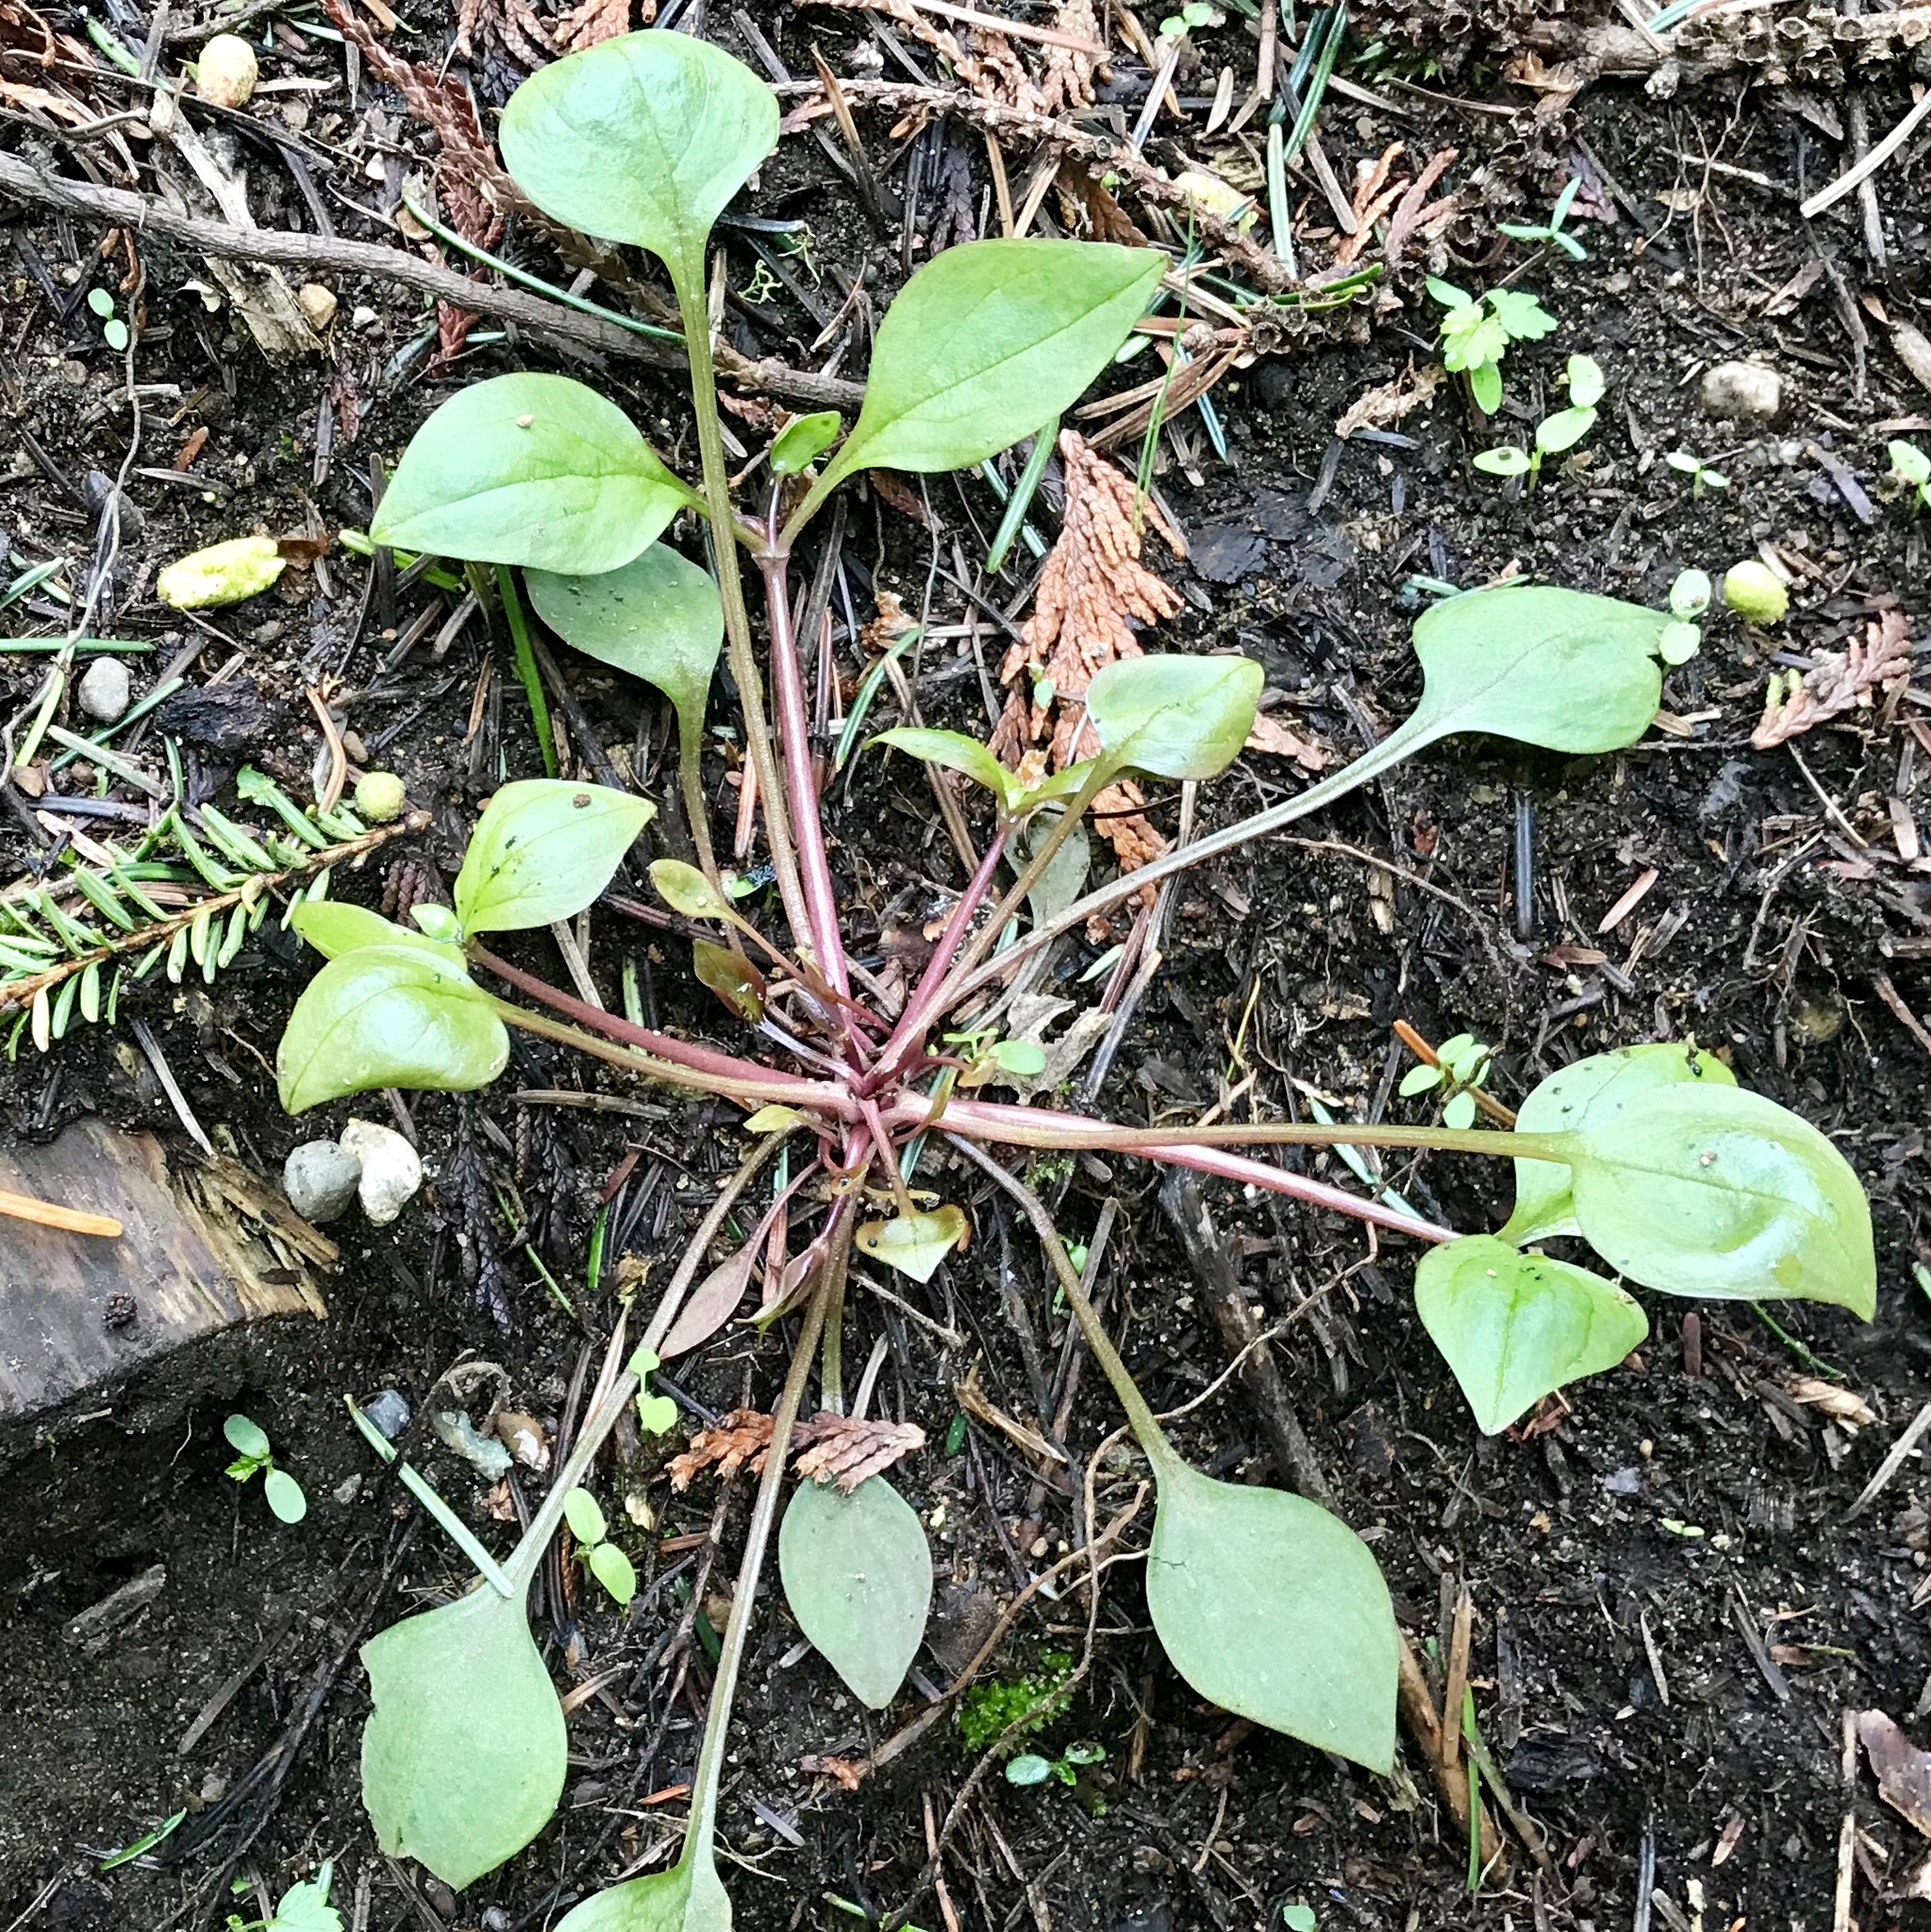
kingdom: Plantae
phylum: Tracheophyta
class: Magnoliopsida
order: Caryophyllales
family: Montiaceae
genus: Claytonia
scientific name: Claytonia sibirica
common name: Pink purslane
